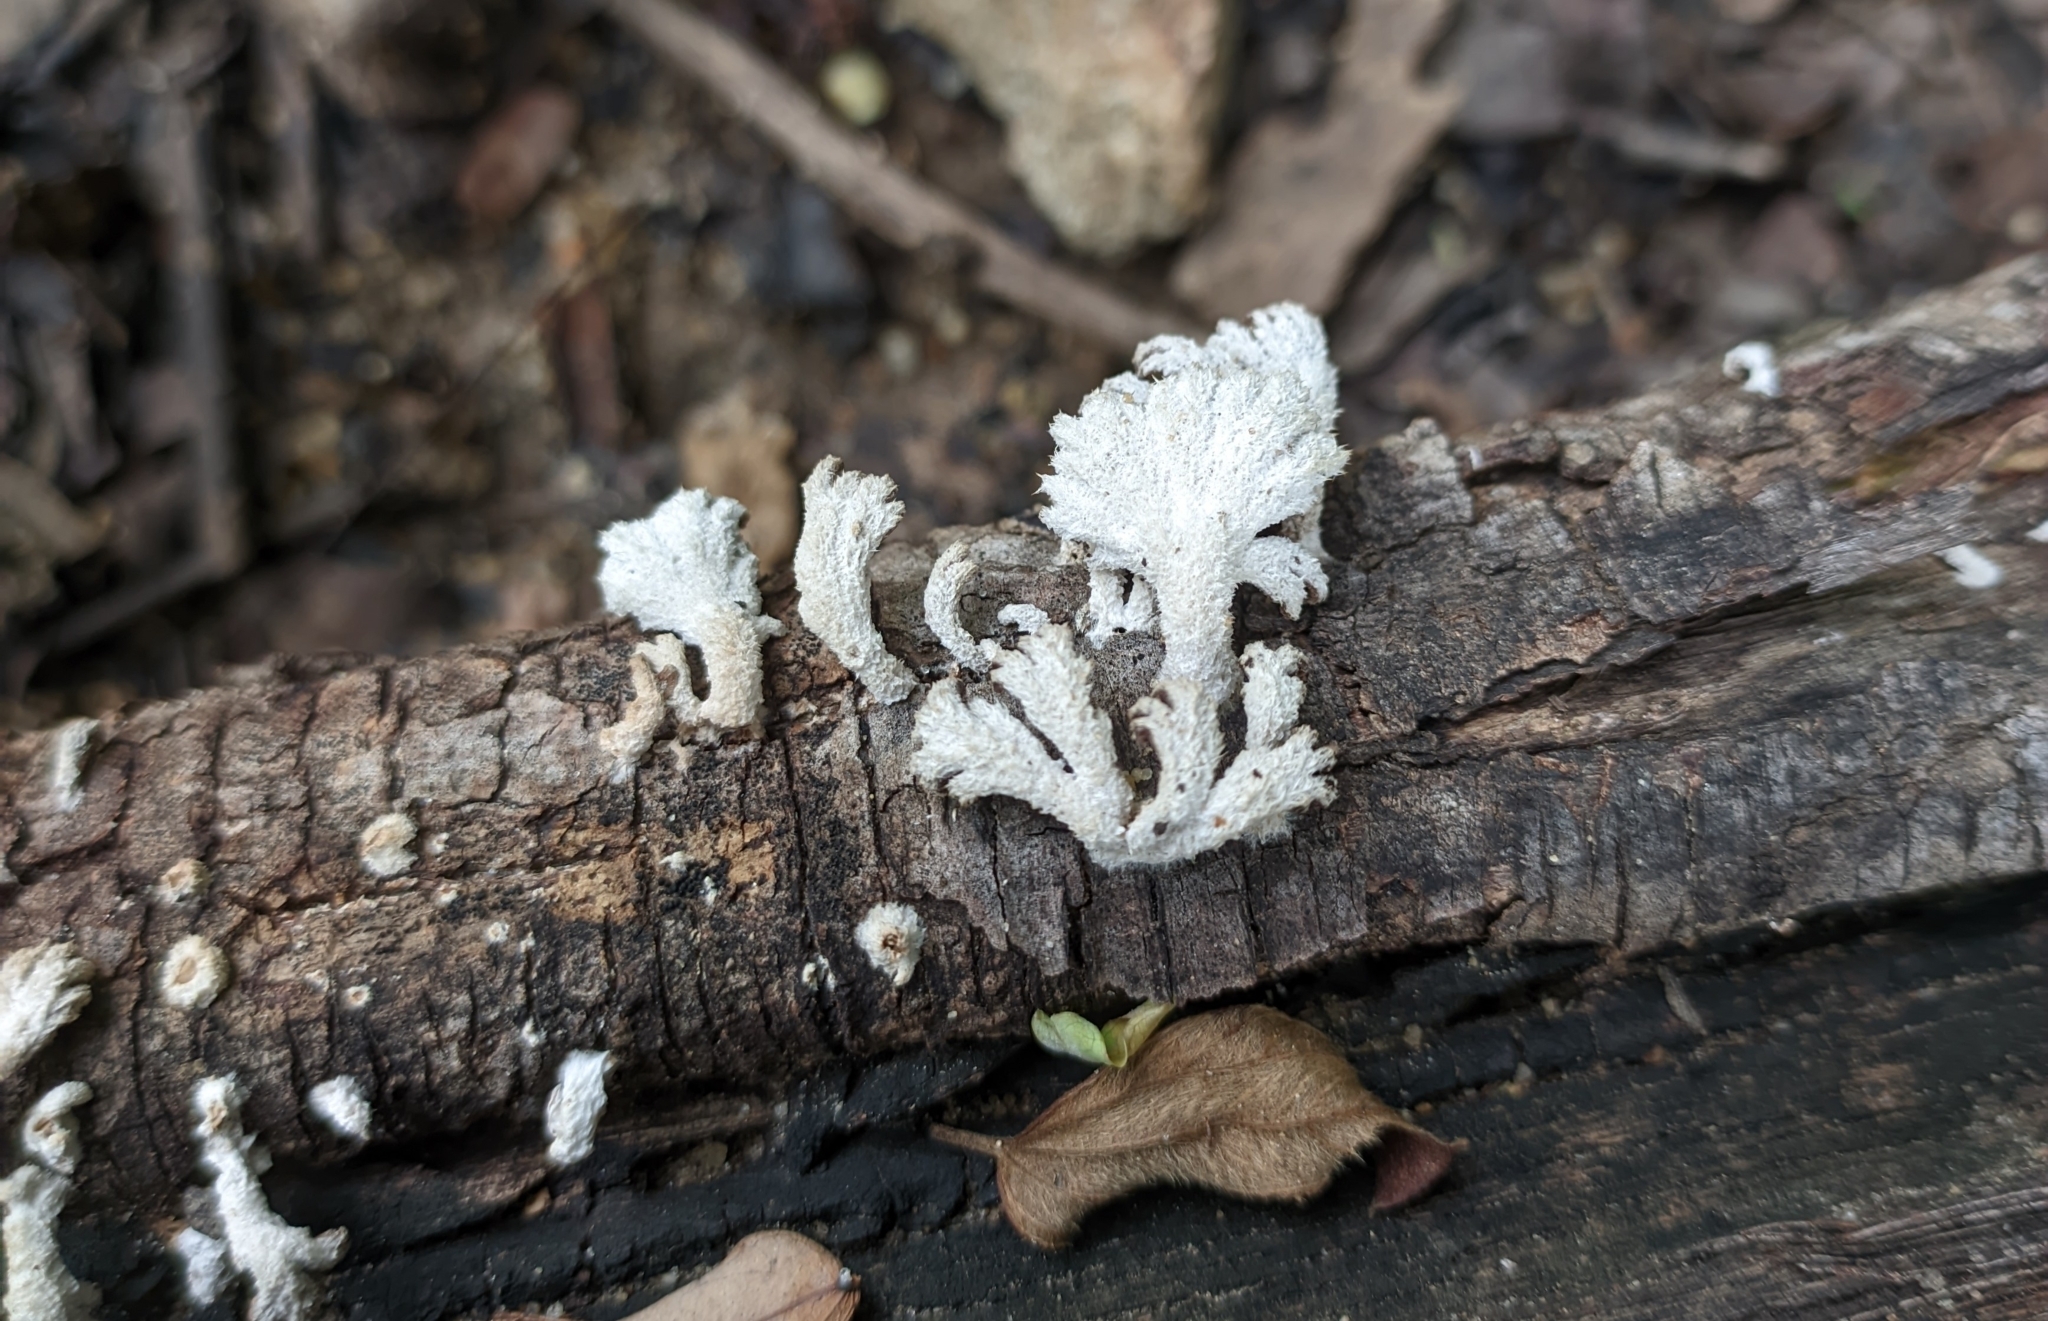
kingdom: Fungi
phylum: Basidiomycota
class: Agaricomycetes
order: Agaricales
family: Schizophyllaceae
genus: Schizophyllum
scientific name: Schizophyllum commune
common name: Common porecrust
